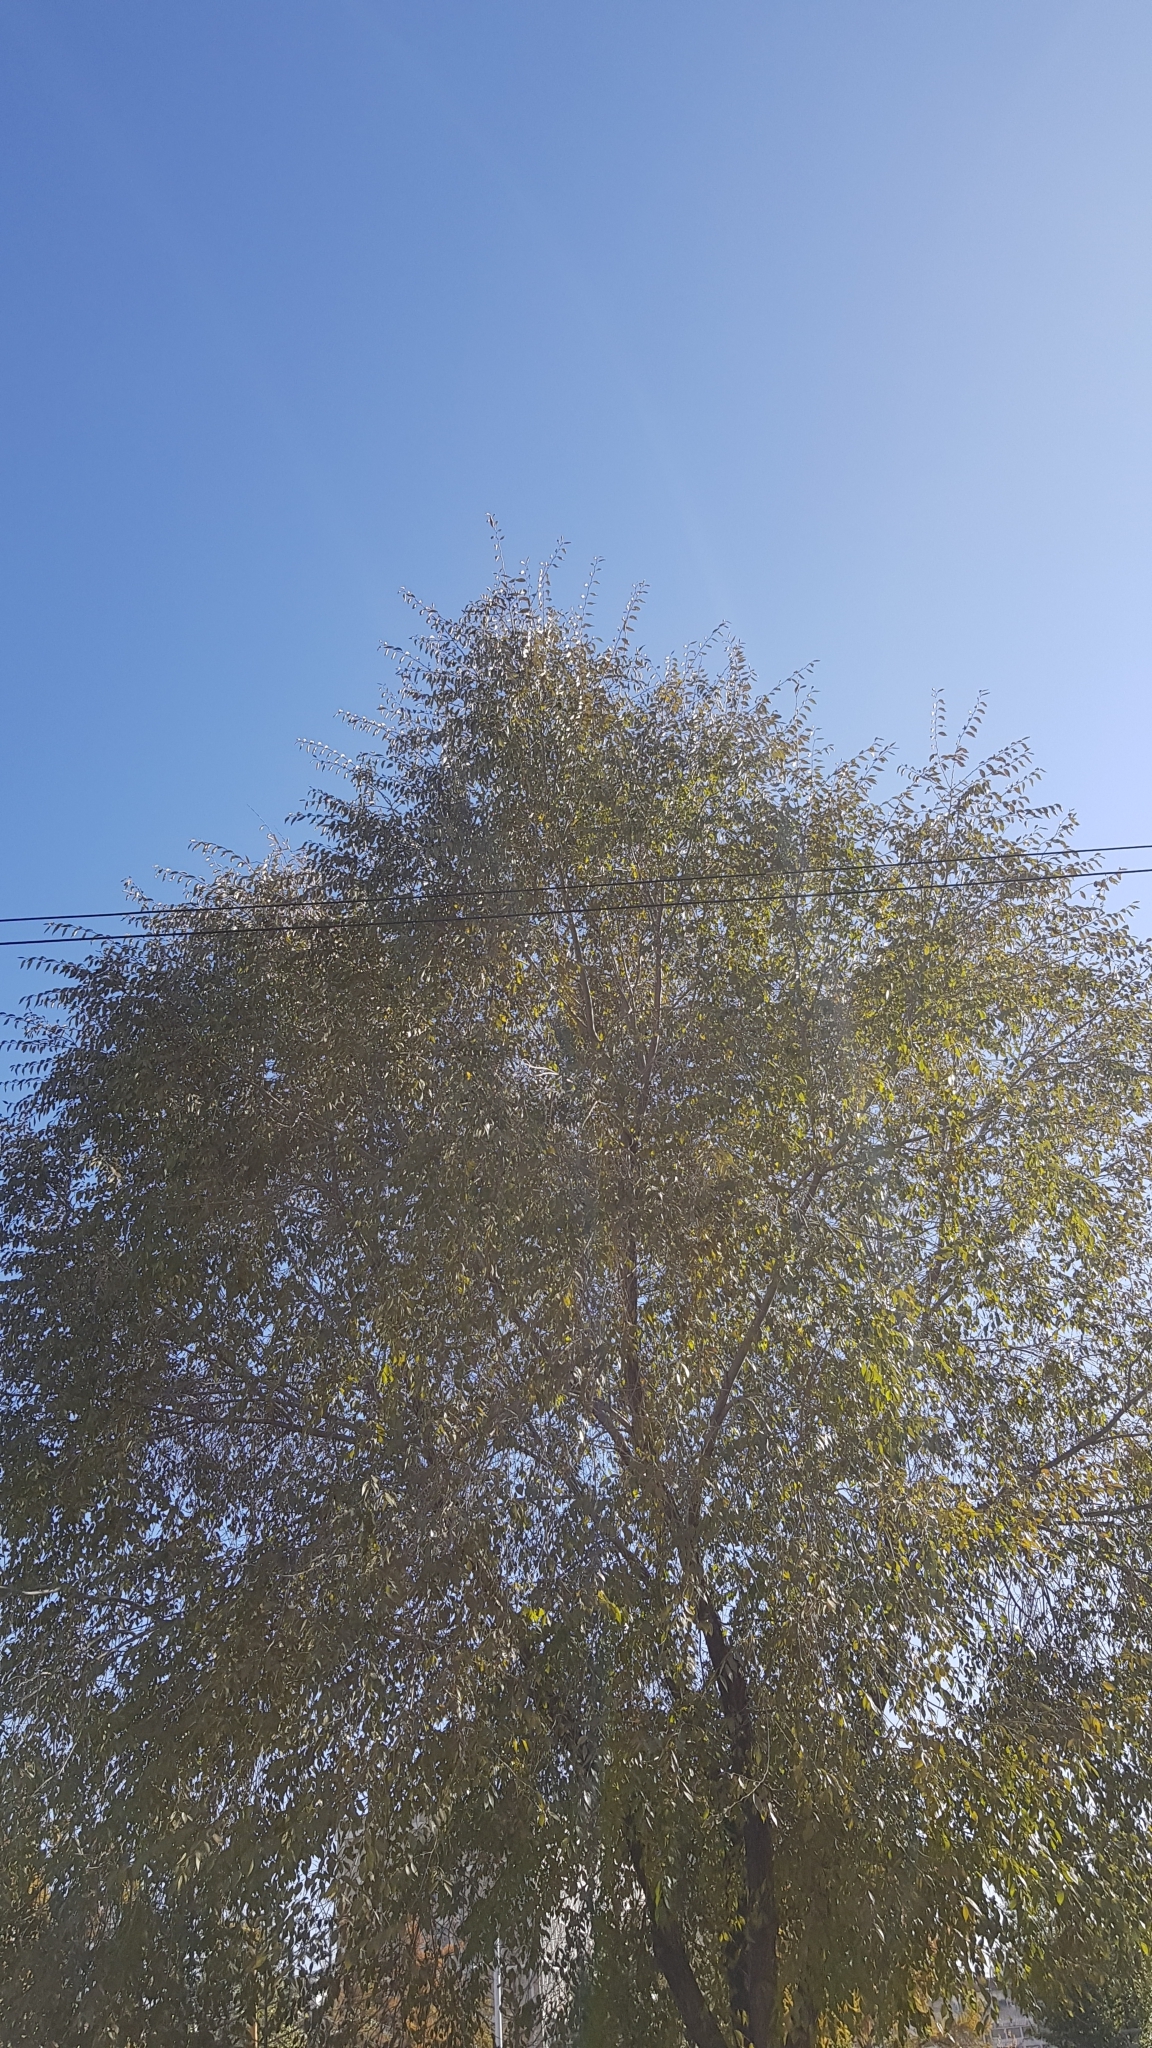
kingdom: Plantae
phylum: Tracheophyta
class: Magnoliopsida
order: Rosales
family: Ulmaceae
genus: Ulmus
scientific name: Ulmus pumila
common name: Siberian elm
